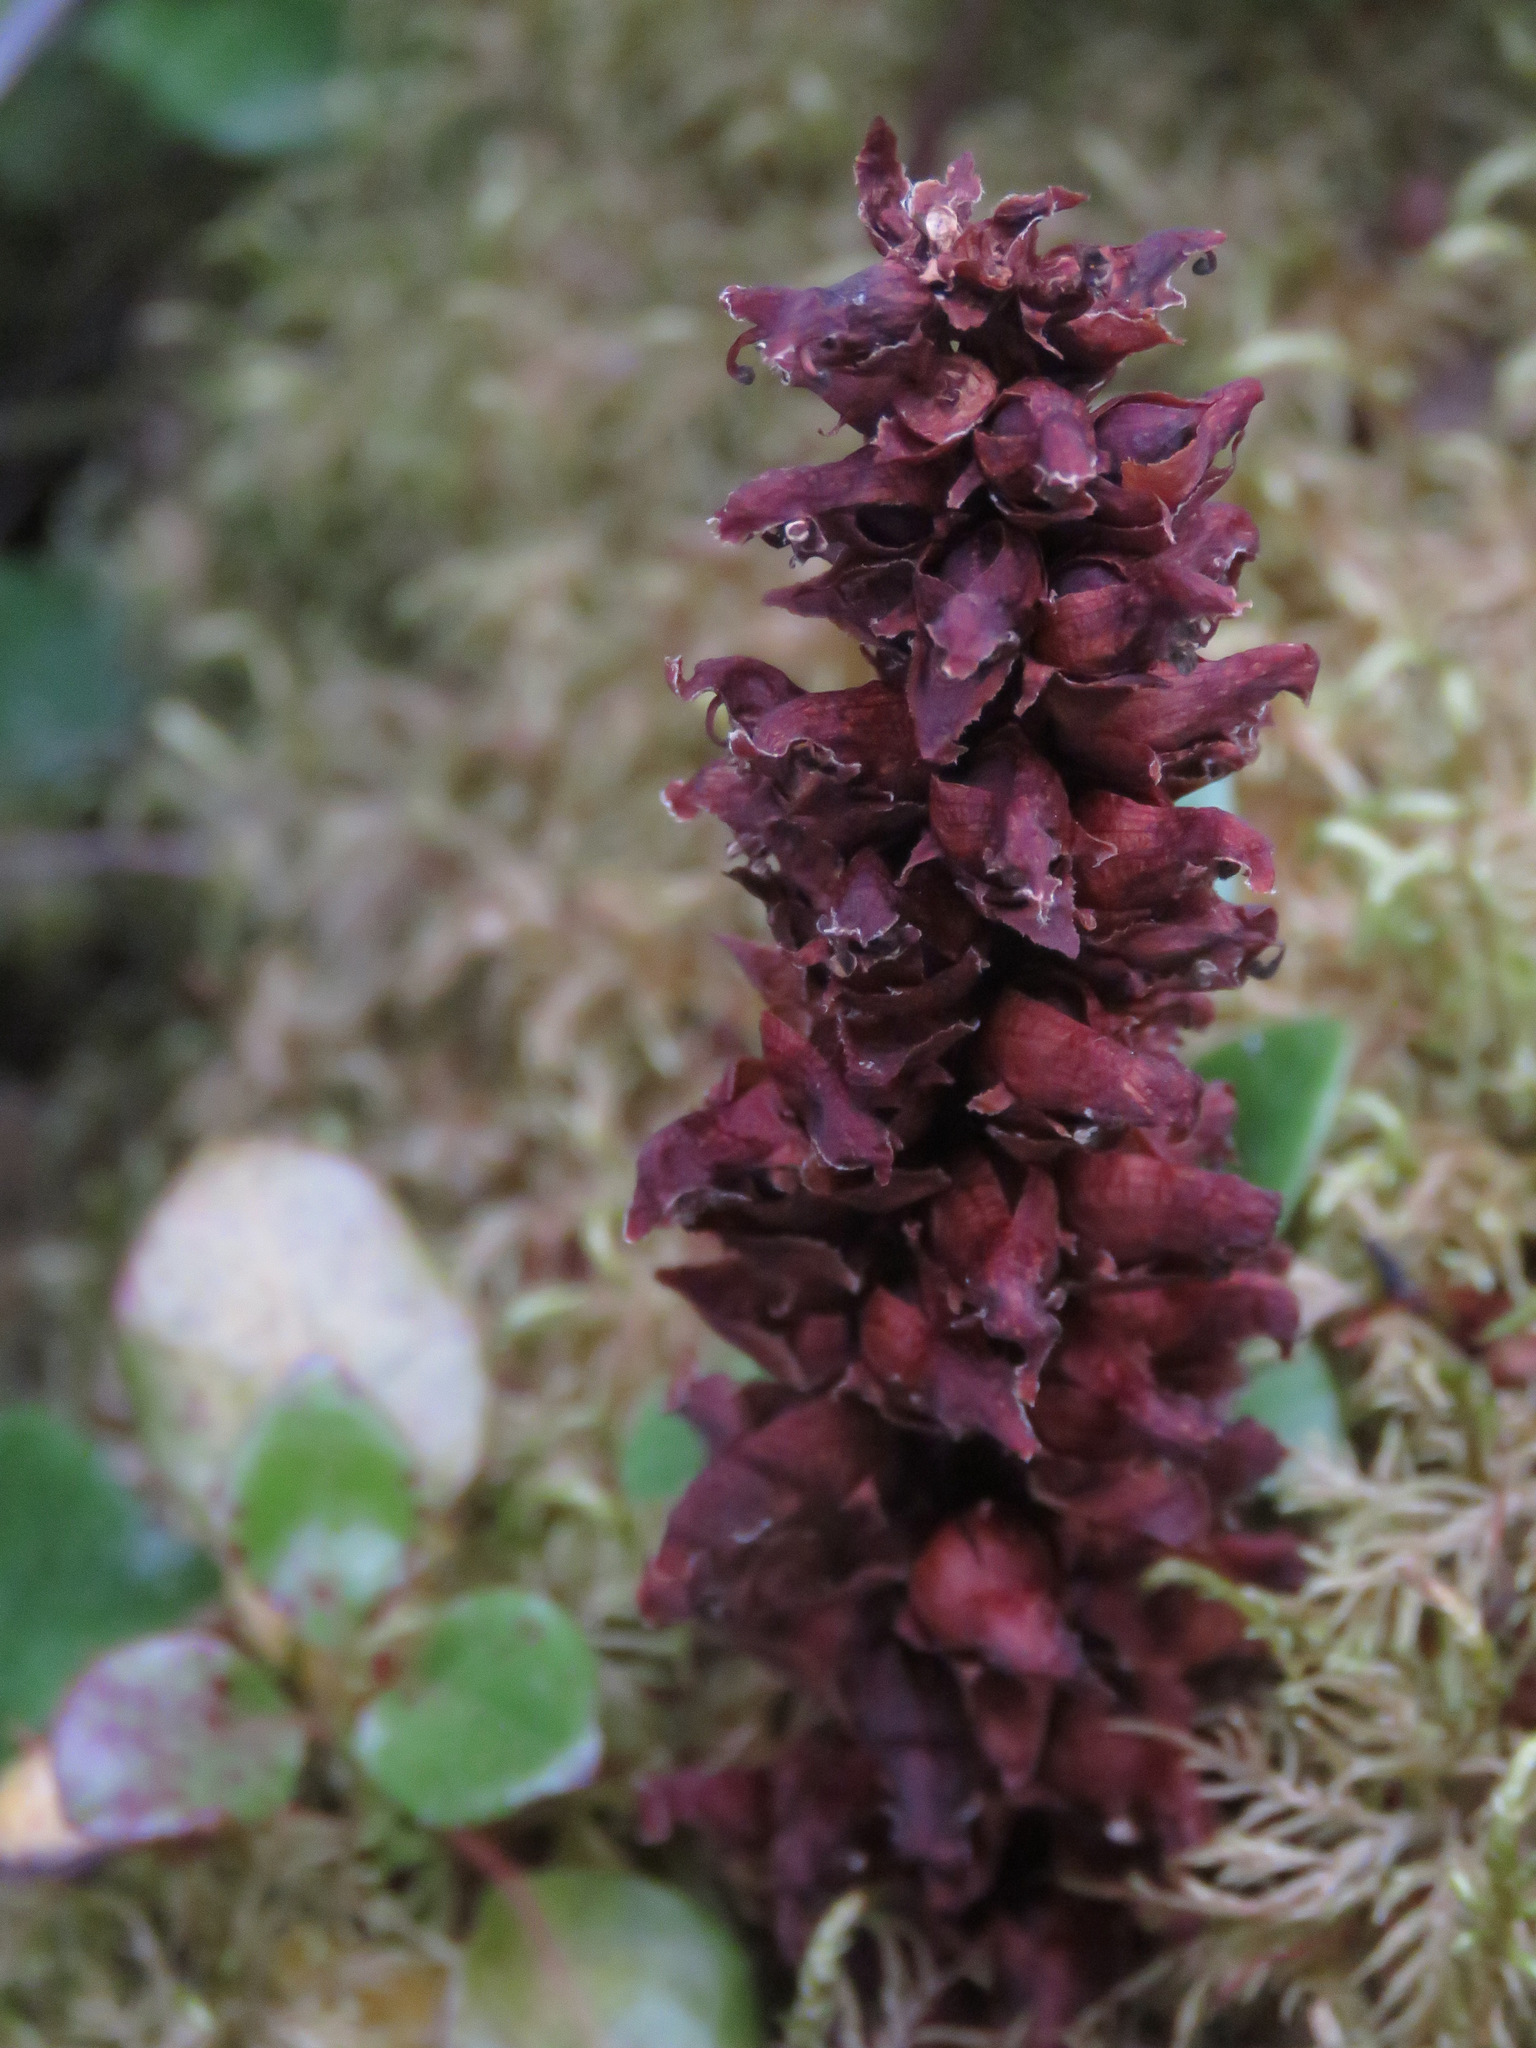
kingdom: Plantae
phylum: Tracheophyta
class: Magnoliopsida
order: Lamiales
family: Orobanchaceae
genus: Boschniakia
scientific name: Boschniakia rossica
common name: Poque
